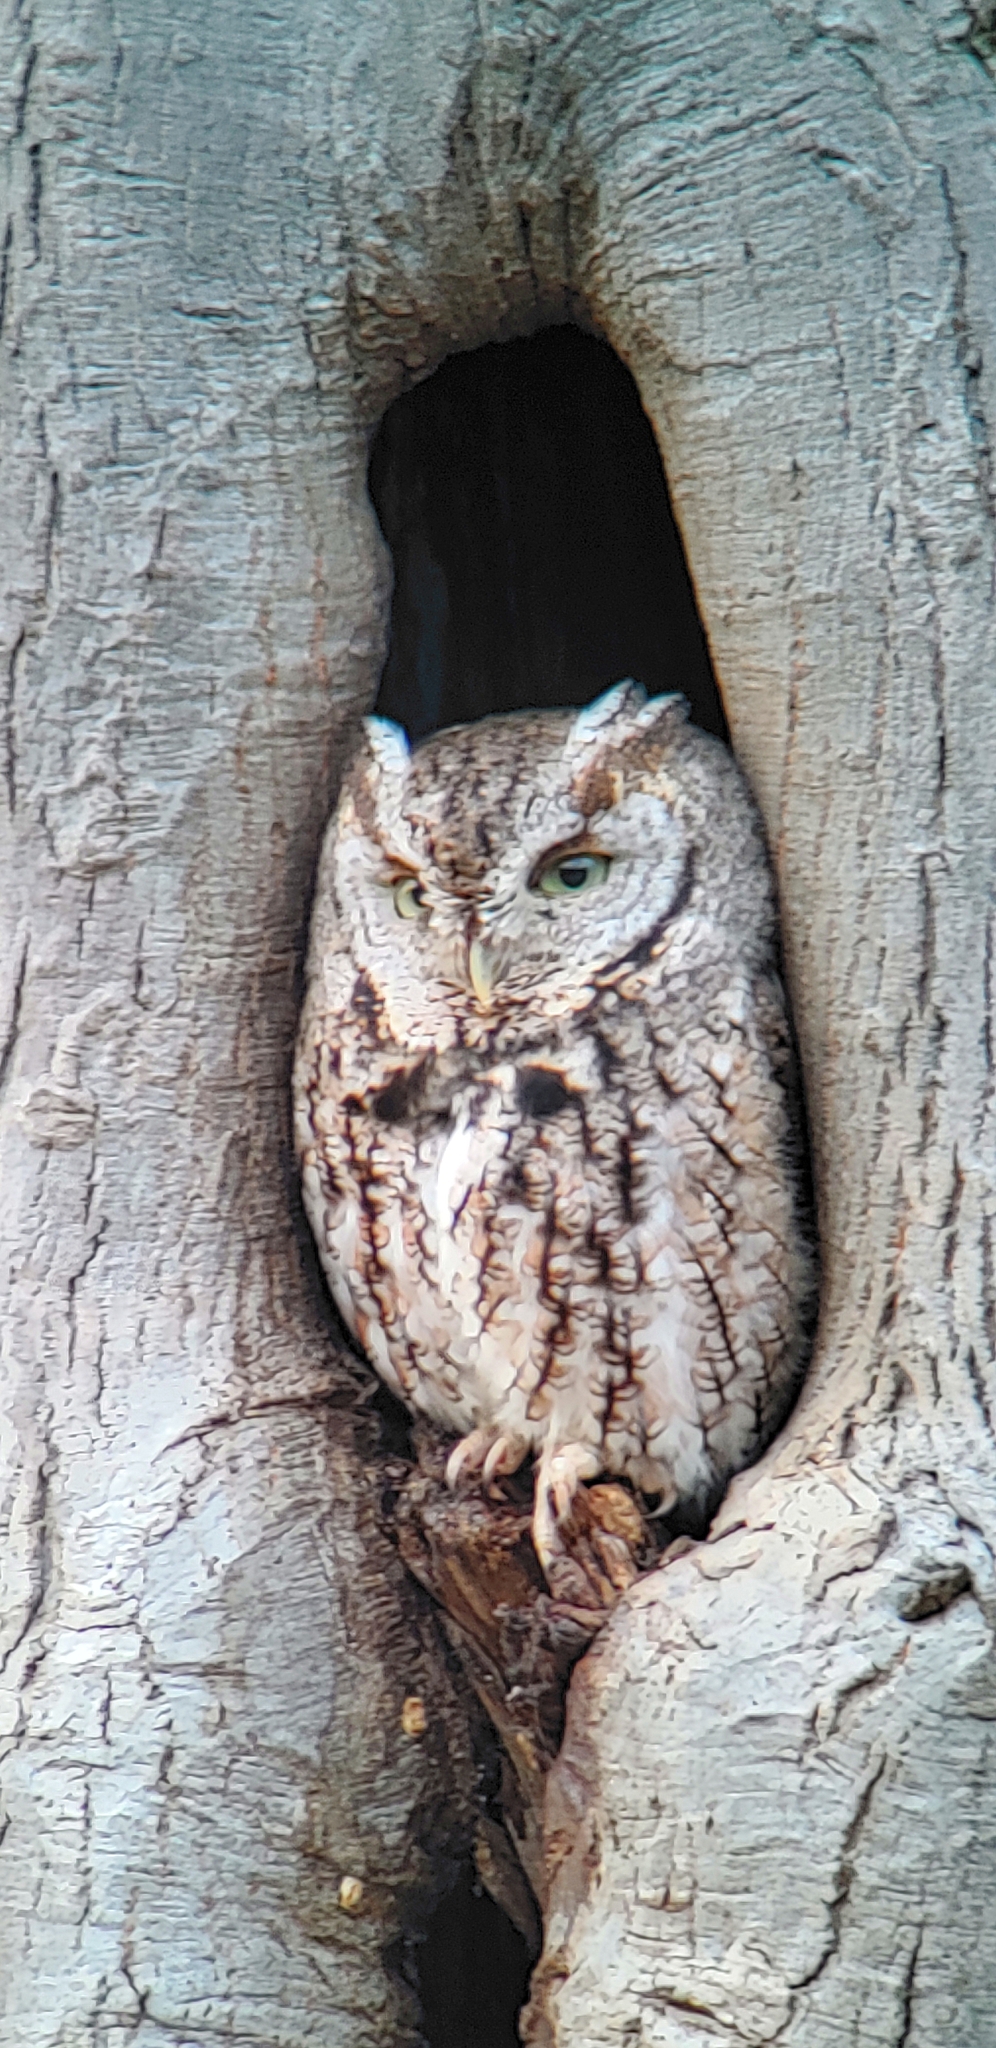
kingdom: Animalia
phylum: Chordata
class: Aves
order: Strigiformes
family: Strigidae
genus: Megascops
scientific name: Megascops asio
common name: Eastern screech-owl
